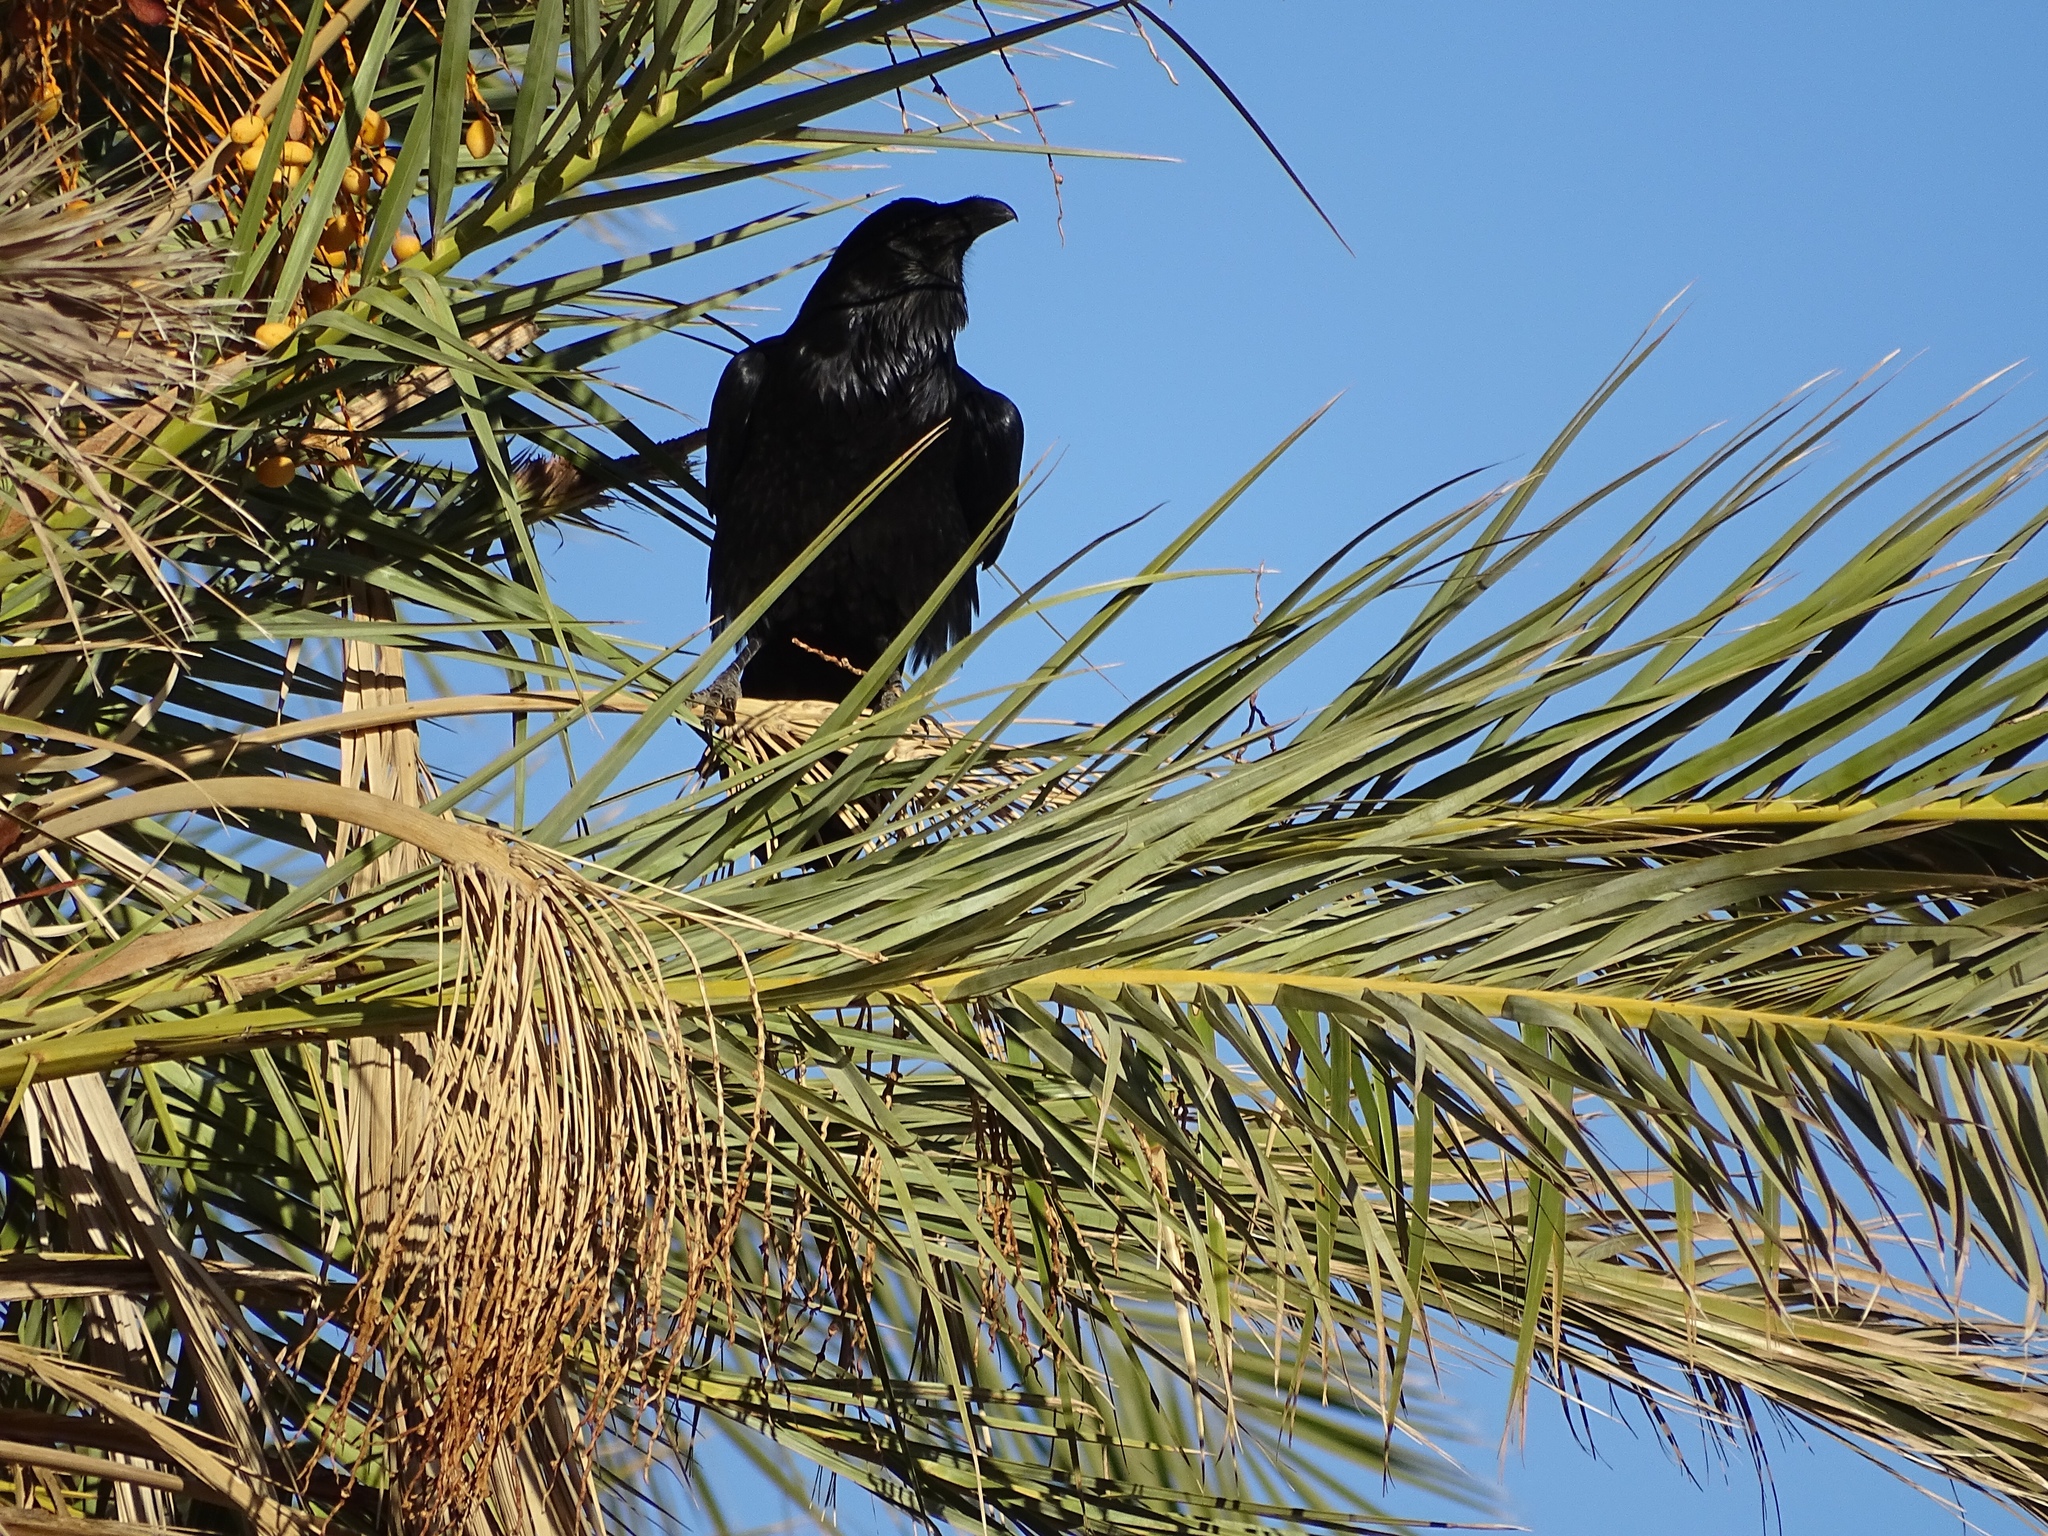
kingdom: Animalia
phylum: Chordata
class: Aves
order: Passeriformes
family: Corvidae
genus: Corvus
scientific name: Corvus corax
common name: Common raven
